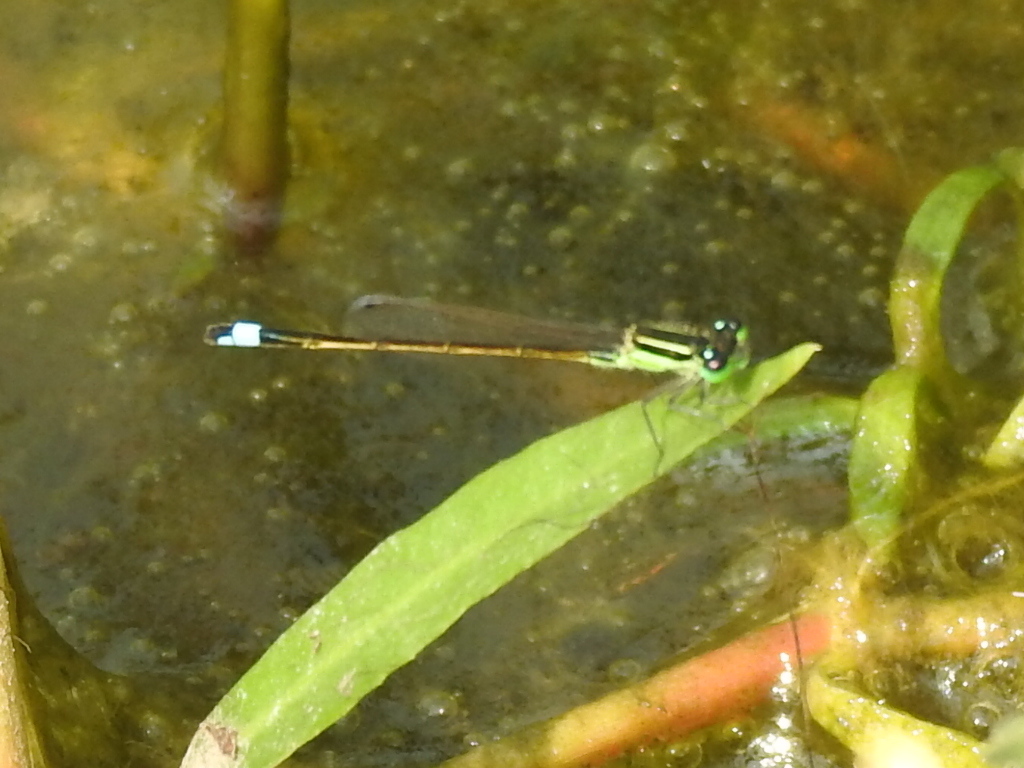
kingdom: Animalia
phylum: Arthropoda
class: Insecta
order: Odonata
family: Coenagrionidae
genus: Ischnura
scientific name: Ischnura ramburii
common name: Rambur's forktail
